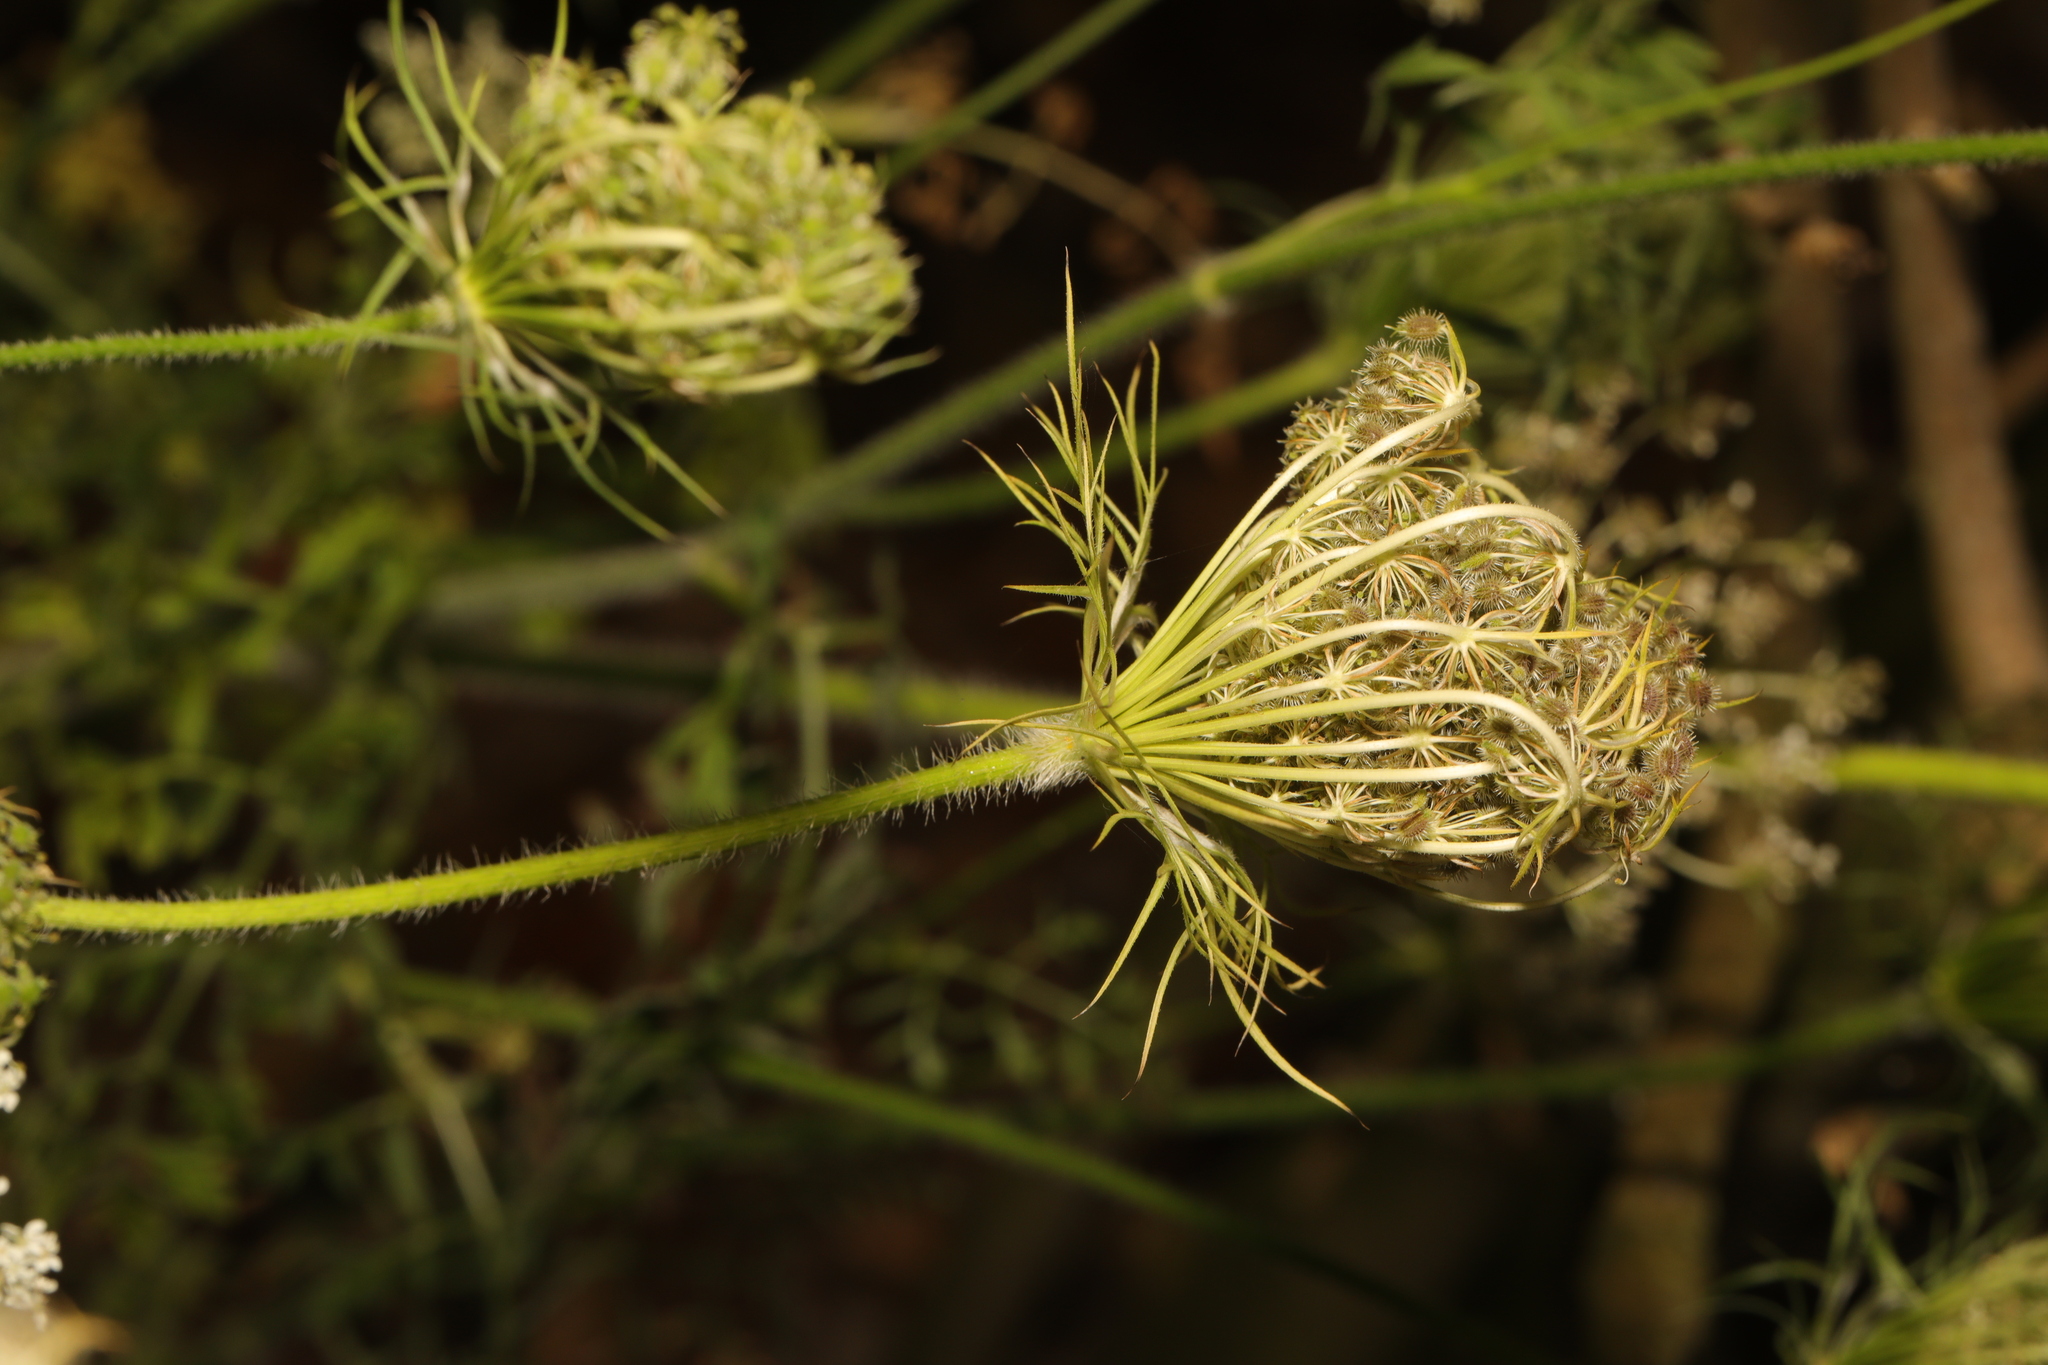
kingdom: Plantae
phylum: Tracheophyta
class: Magnoliopsida
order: Apiales
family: Apiaceae
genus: Daucus
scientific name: Daucus carota
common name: Wild carrot
